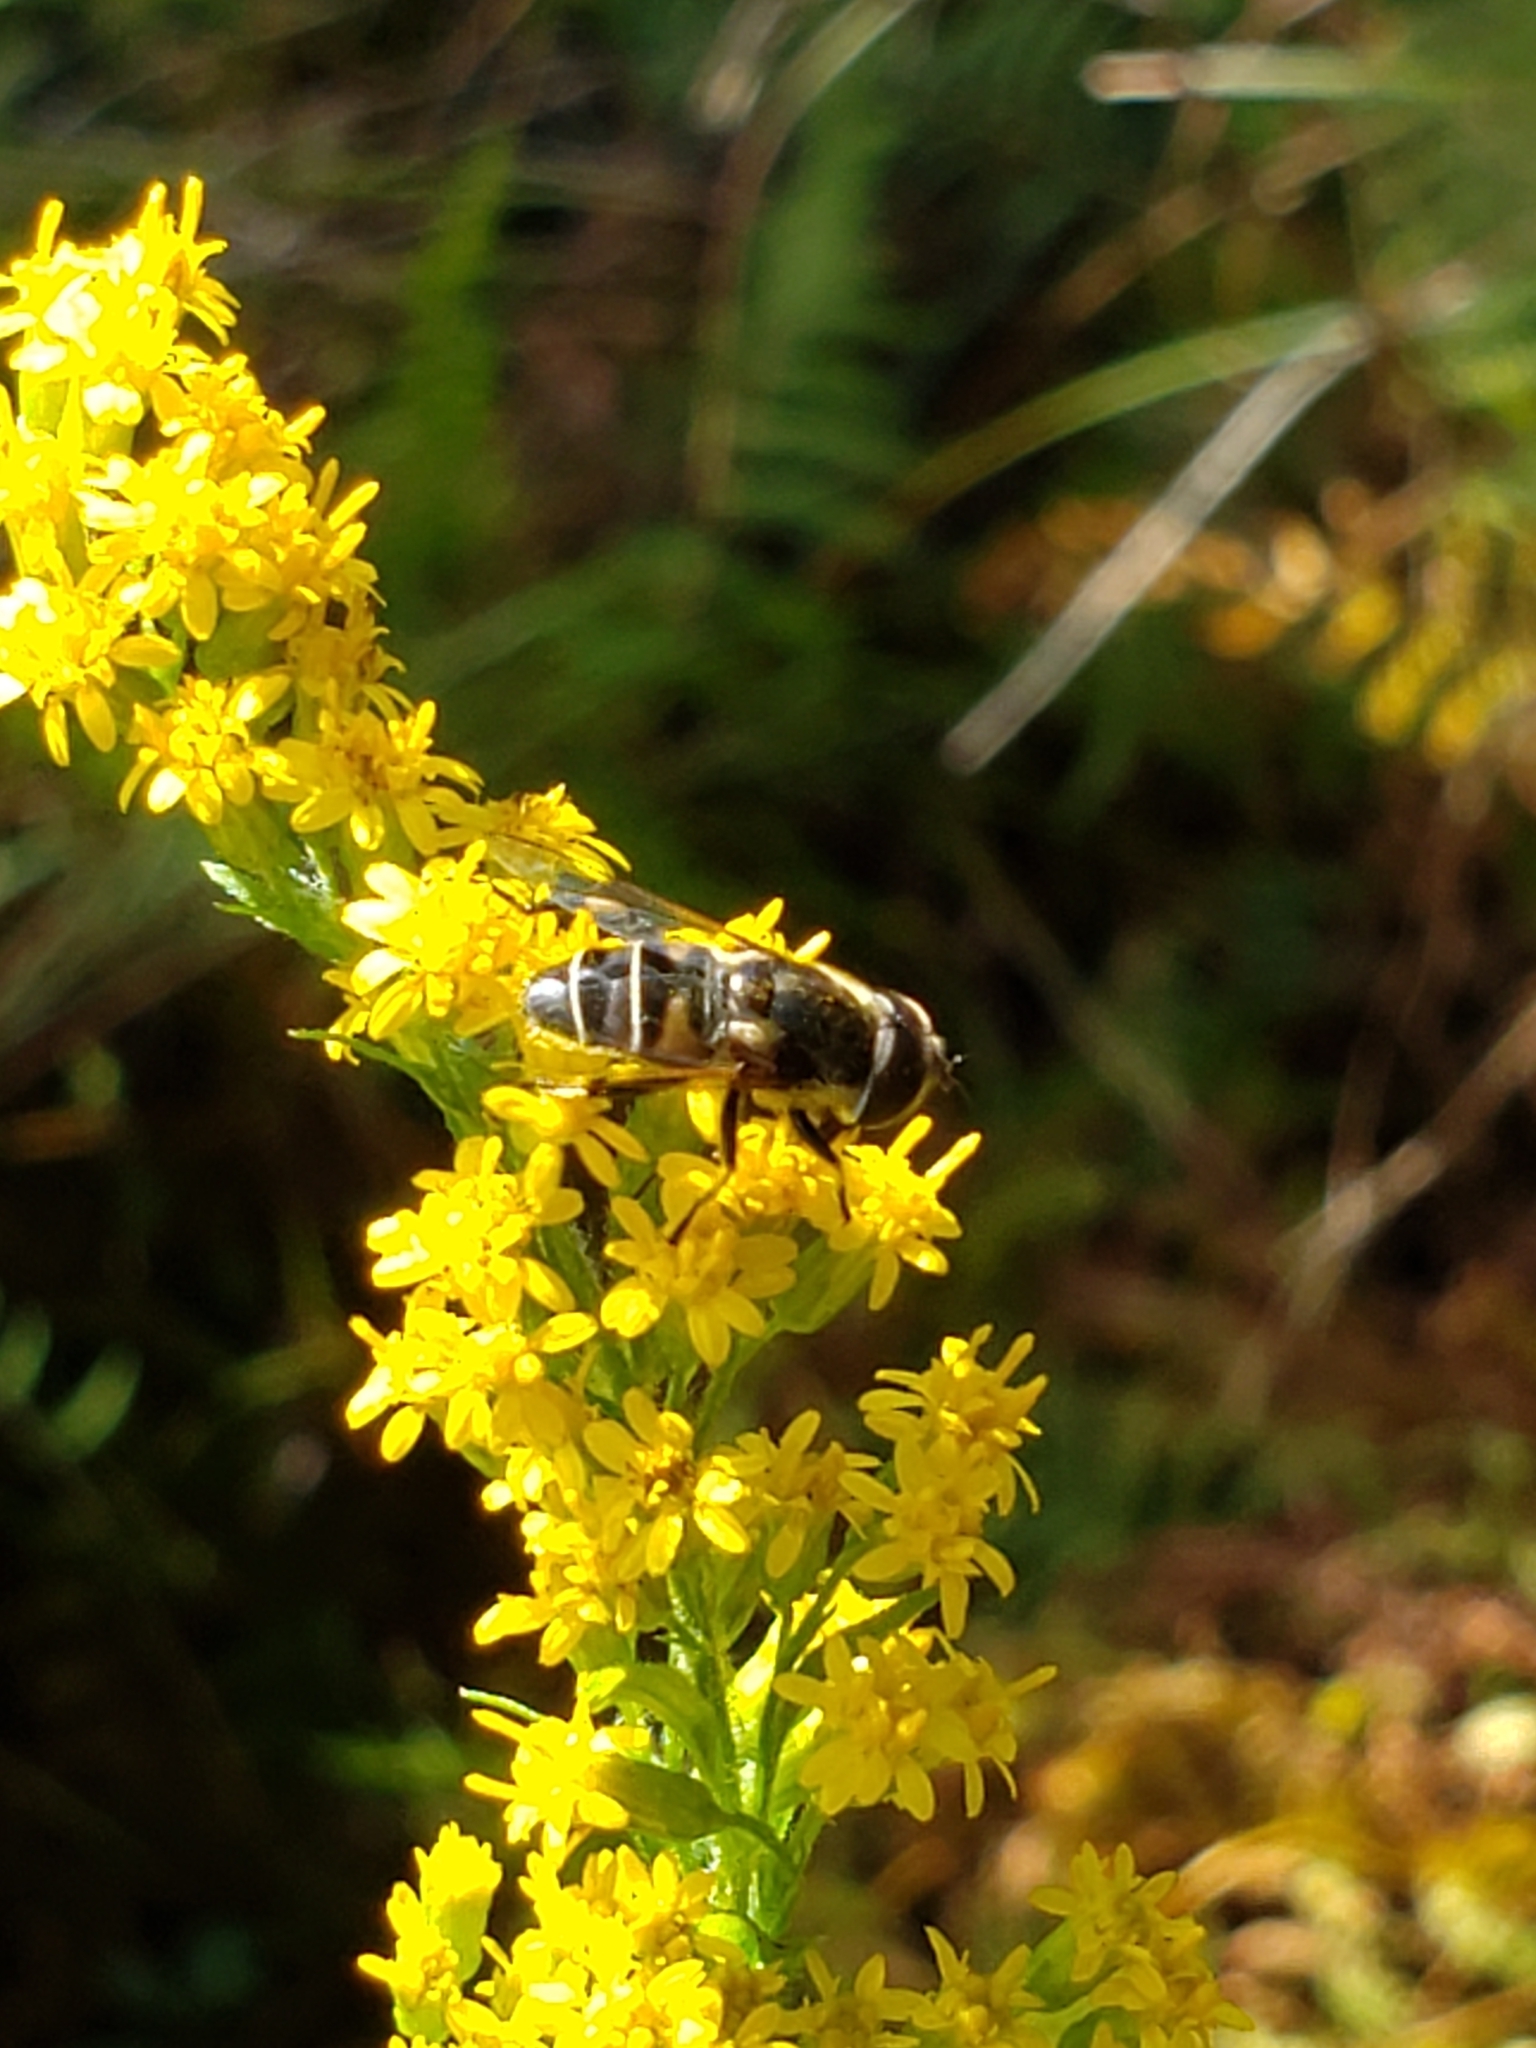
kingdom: Animalia
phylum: Arthropoda
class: Insecta
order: Diptera
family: Syrphidae
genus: Eristalis
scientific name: Eristalis dimidiata
